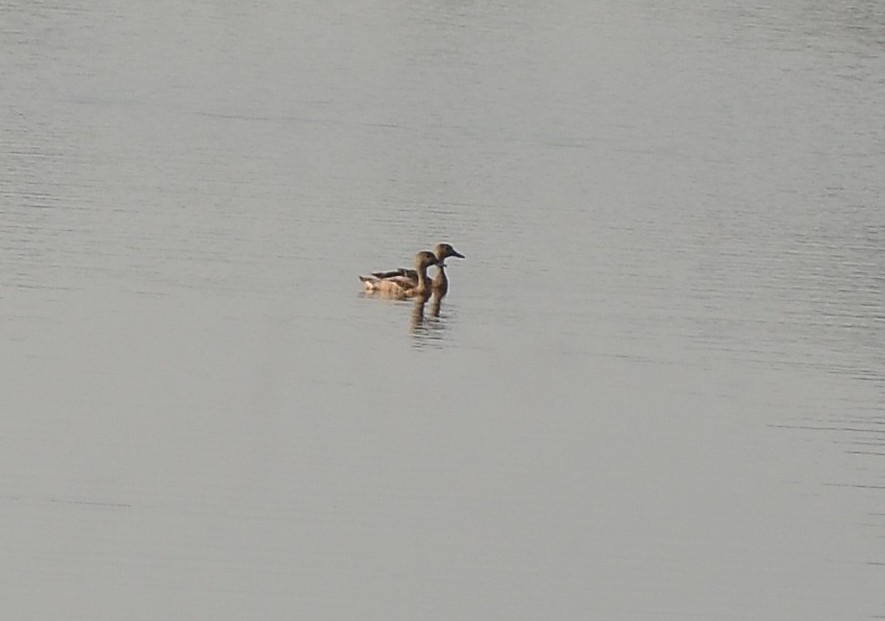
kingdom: Animalia
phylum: Chordata
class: Aves
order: Anseriformes
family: Anatidae
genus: Dendrocygna
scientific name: Dendrocygna javanica
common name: Lesser whistling-duck
